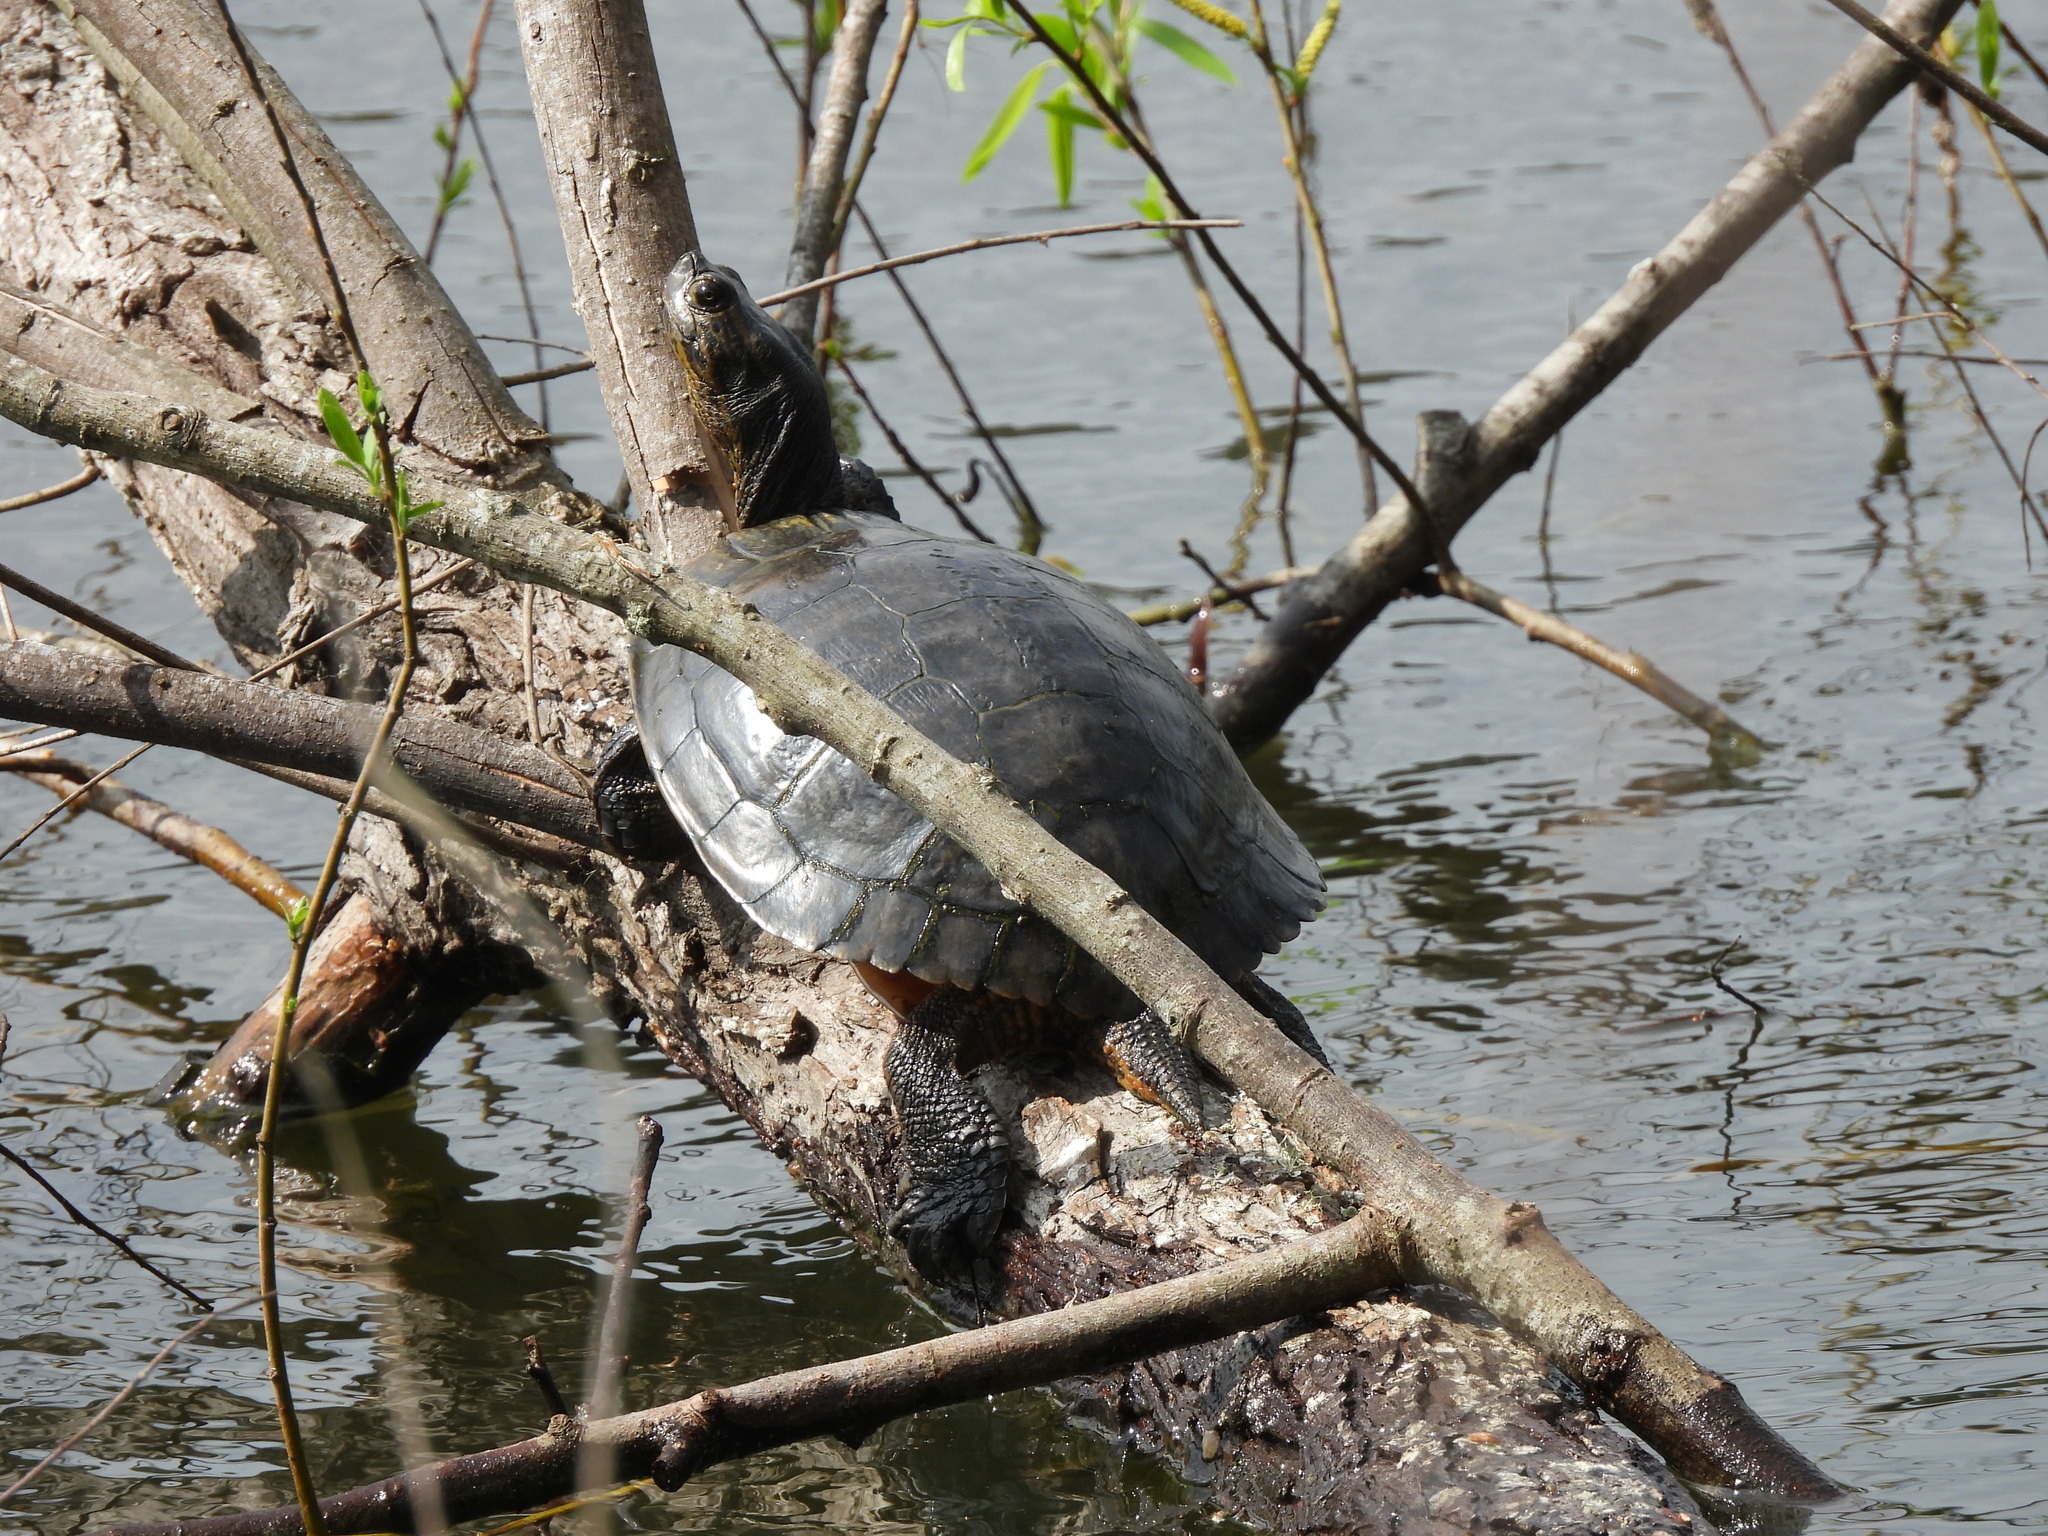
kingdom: Animalia
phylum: Chordata
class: Testudines
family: Emydidae
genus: Trachemys
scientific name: Trachemys scripta
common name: Slider
